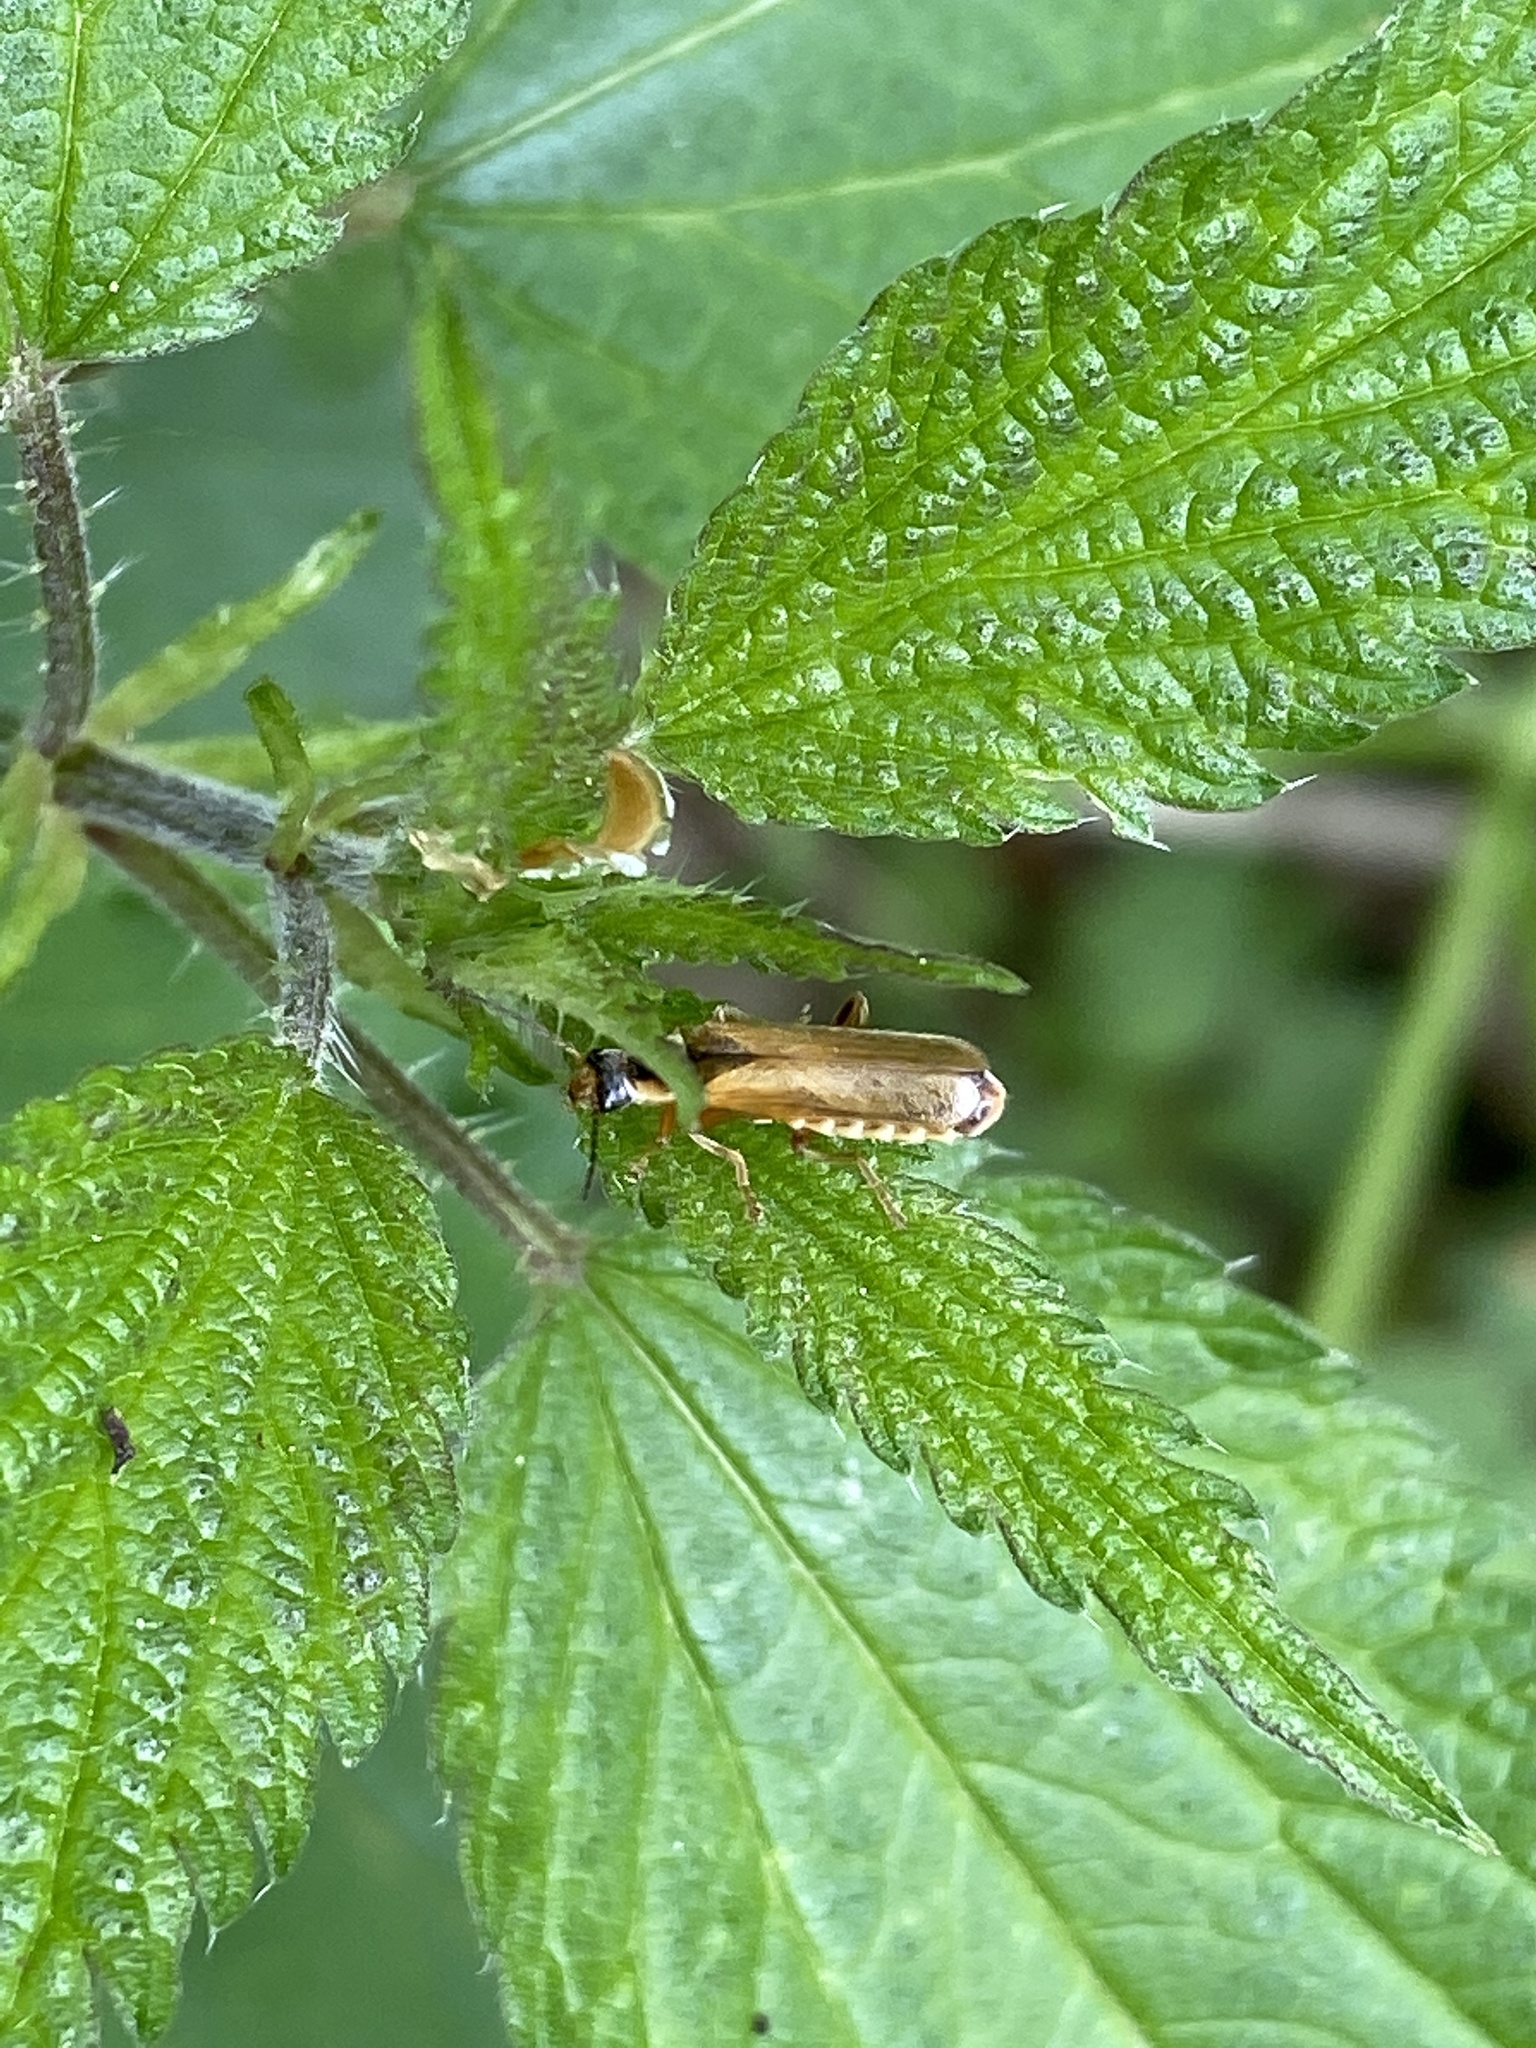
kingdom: Animalia
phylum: Arthropoda
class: Insecta
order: Coleoptera
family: Cantharidae
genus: Cantharis
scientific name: Cantharis decipiens
